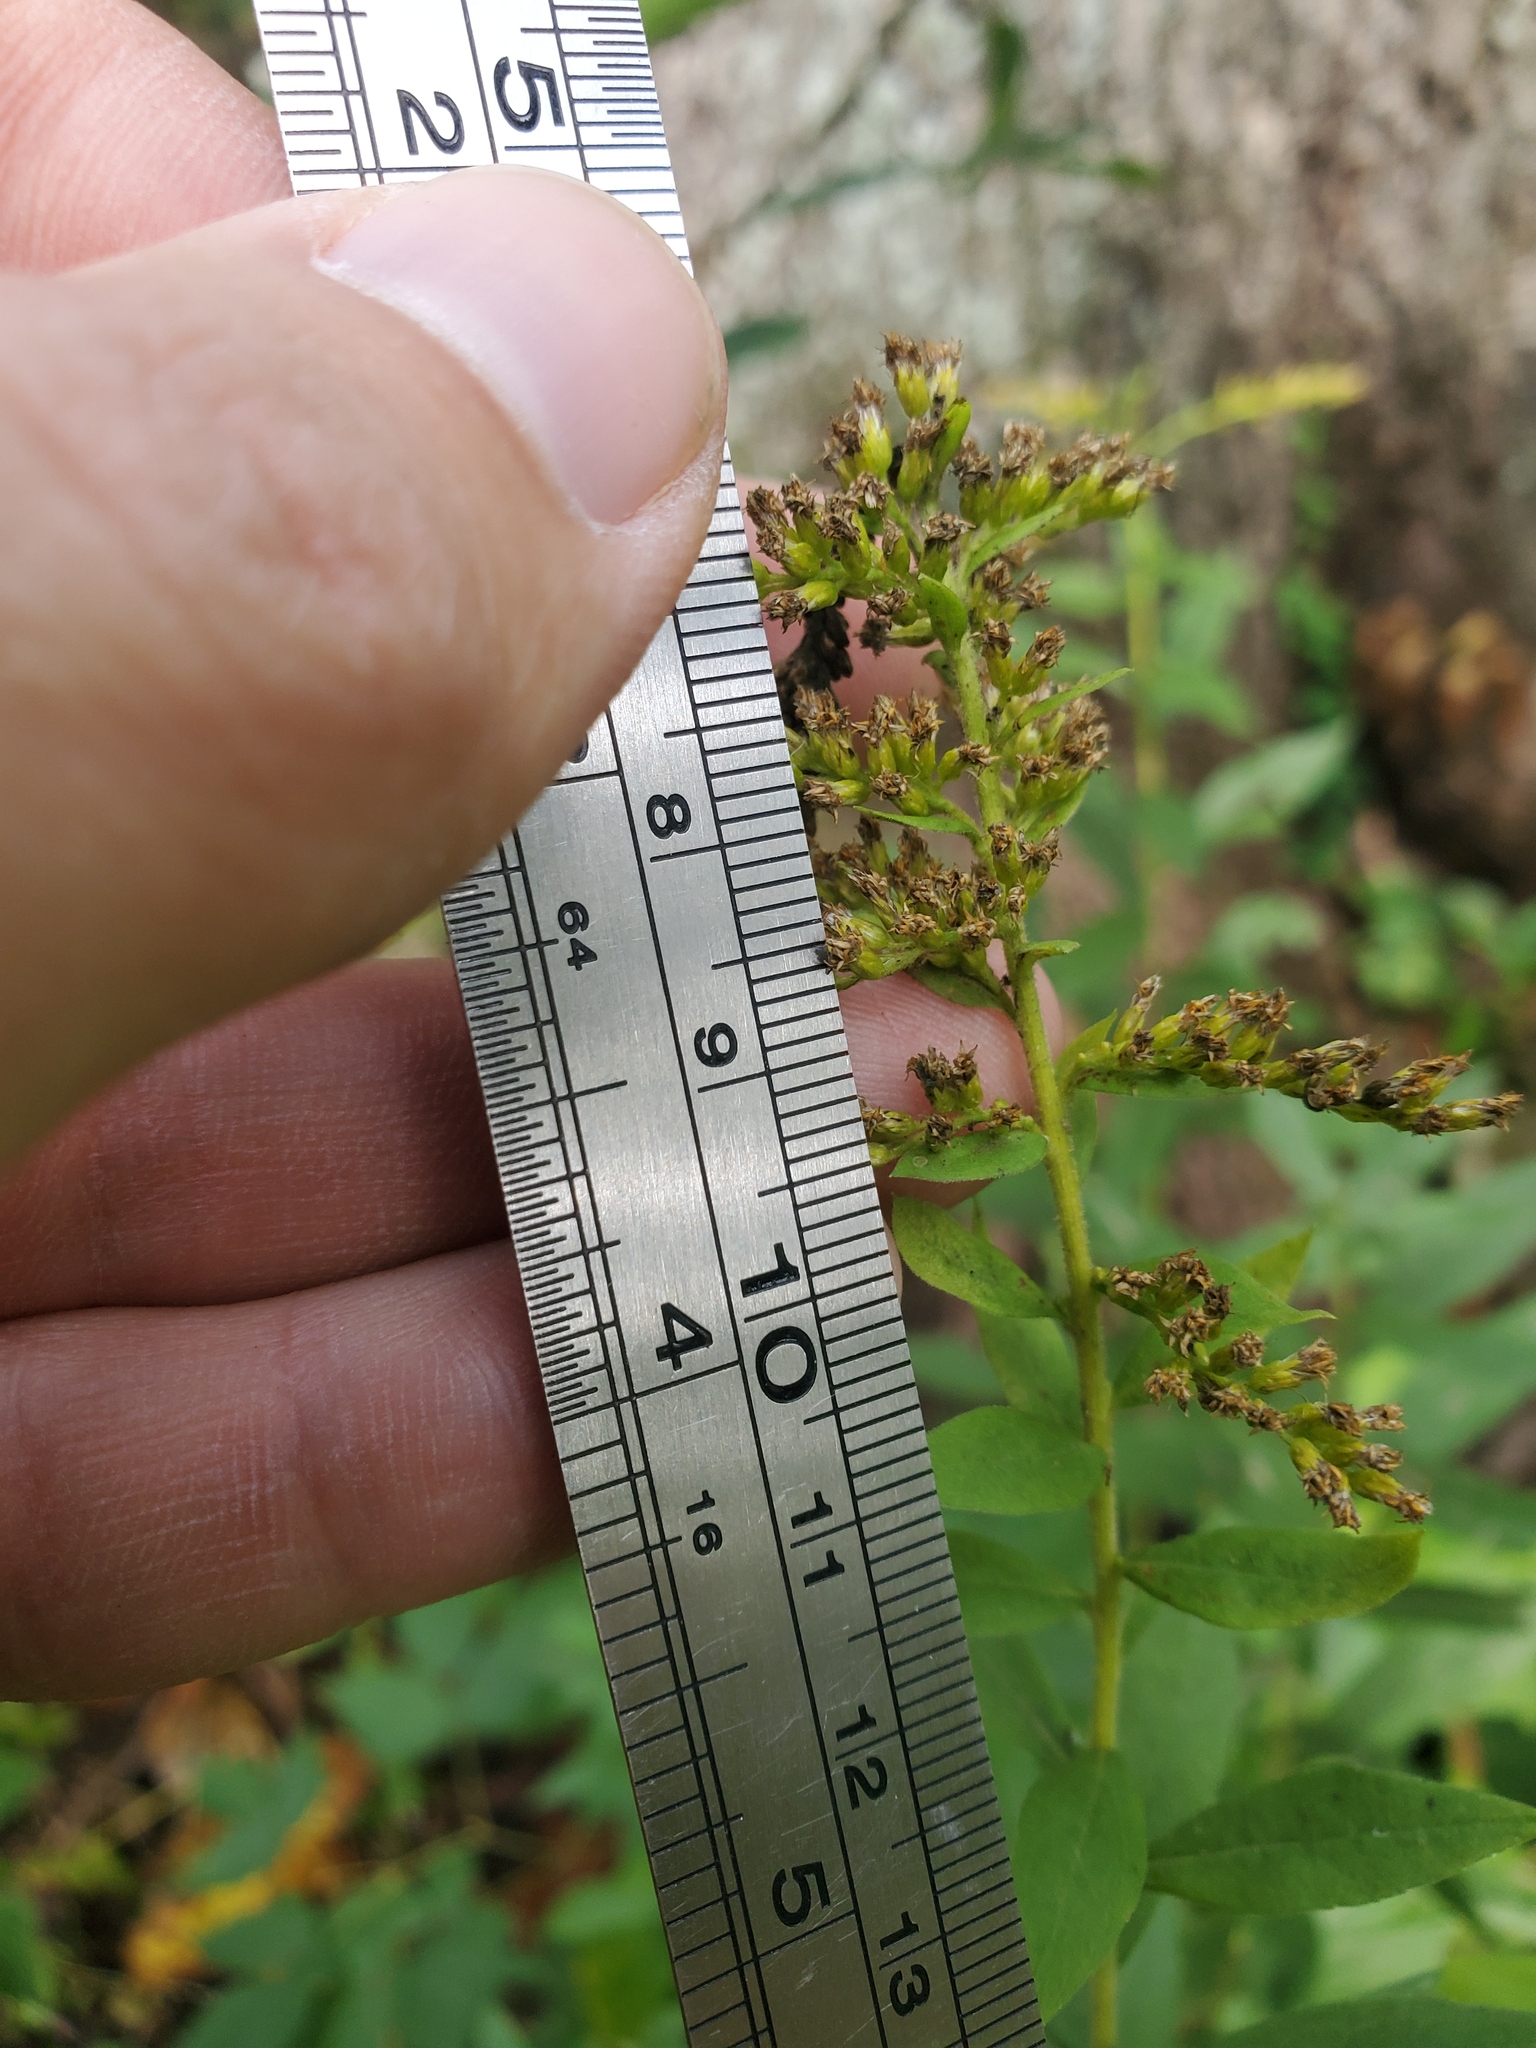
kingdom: Plantae
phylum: Tracheophyta
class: Magnoliopsida
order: Asterales
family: Asteraceae
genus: Solidago
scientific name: Solidago canadensis
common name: Canada goldenrod
